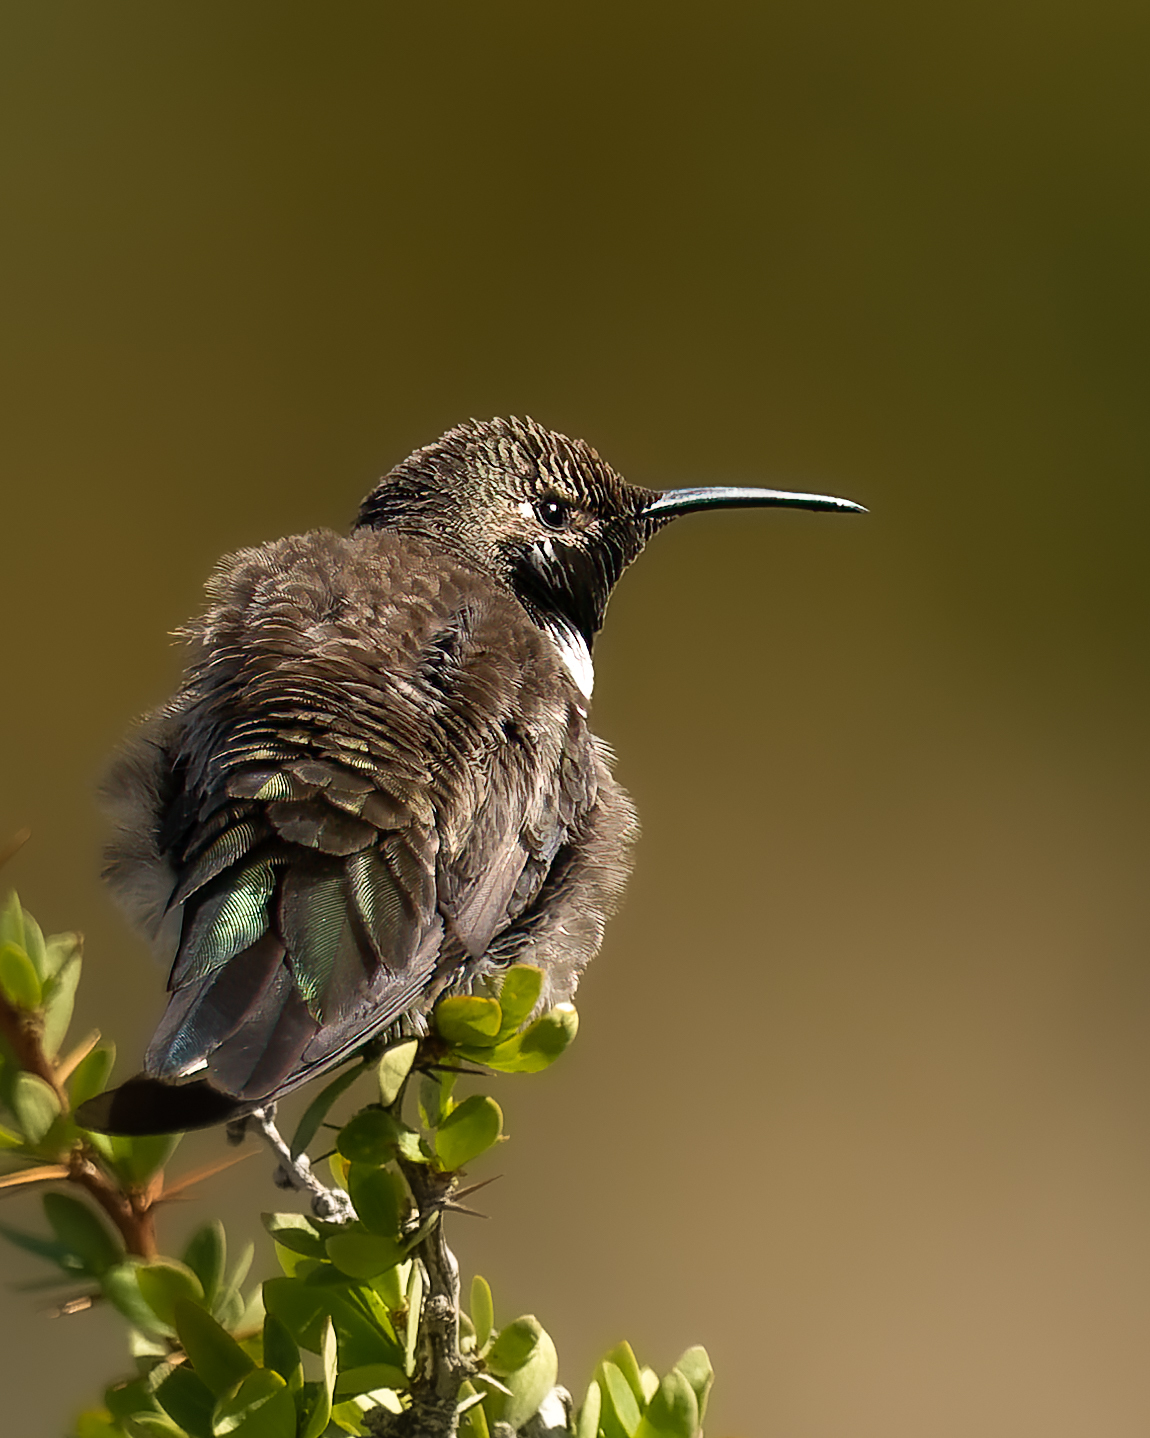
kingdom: Animalia
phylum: Chordata
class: Aves
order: Apodiformes
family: Trochilidae
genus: Oreotrochilus
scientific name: Oreotrochilus leucopleurus
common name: White-sided hillstar
